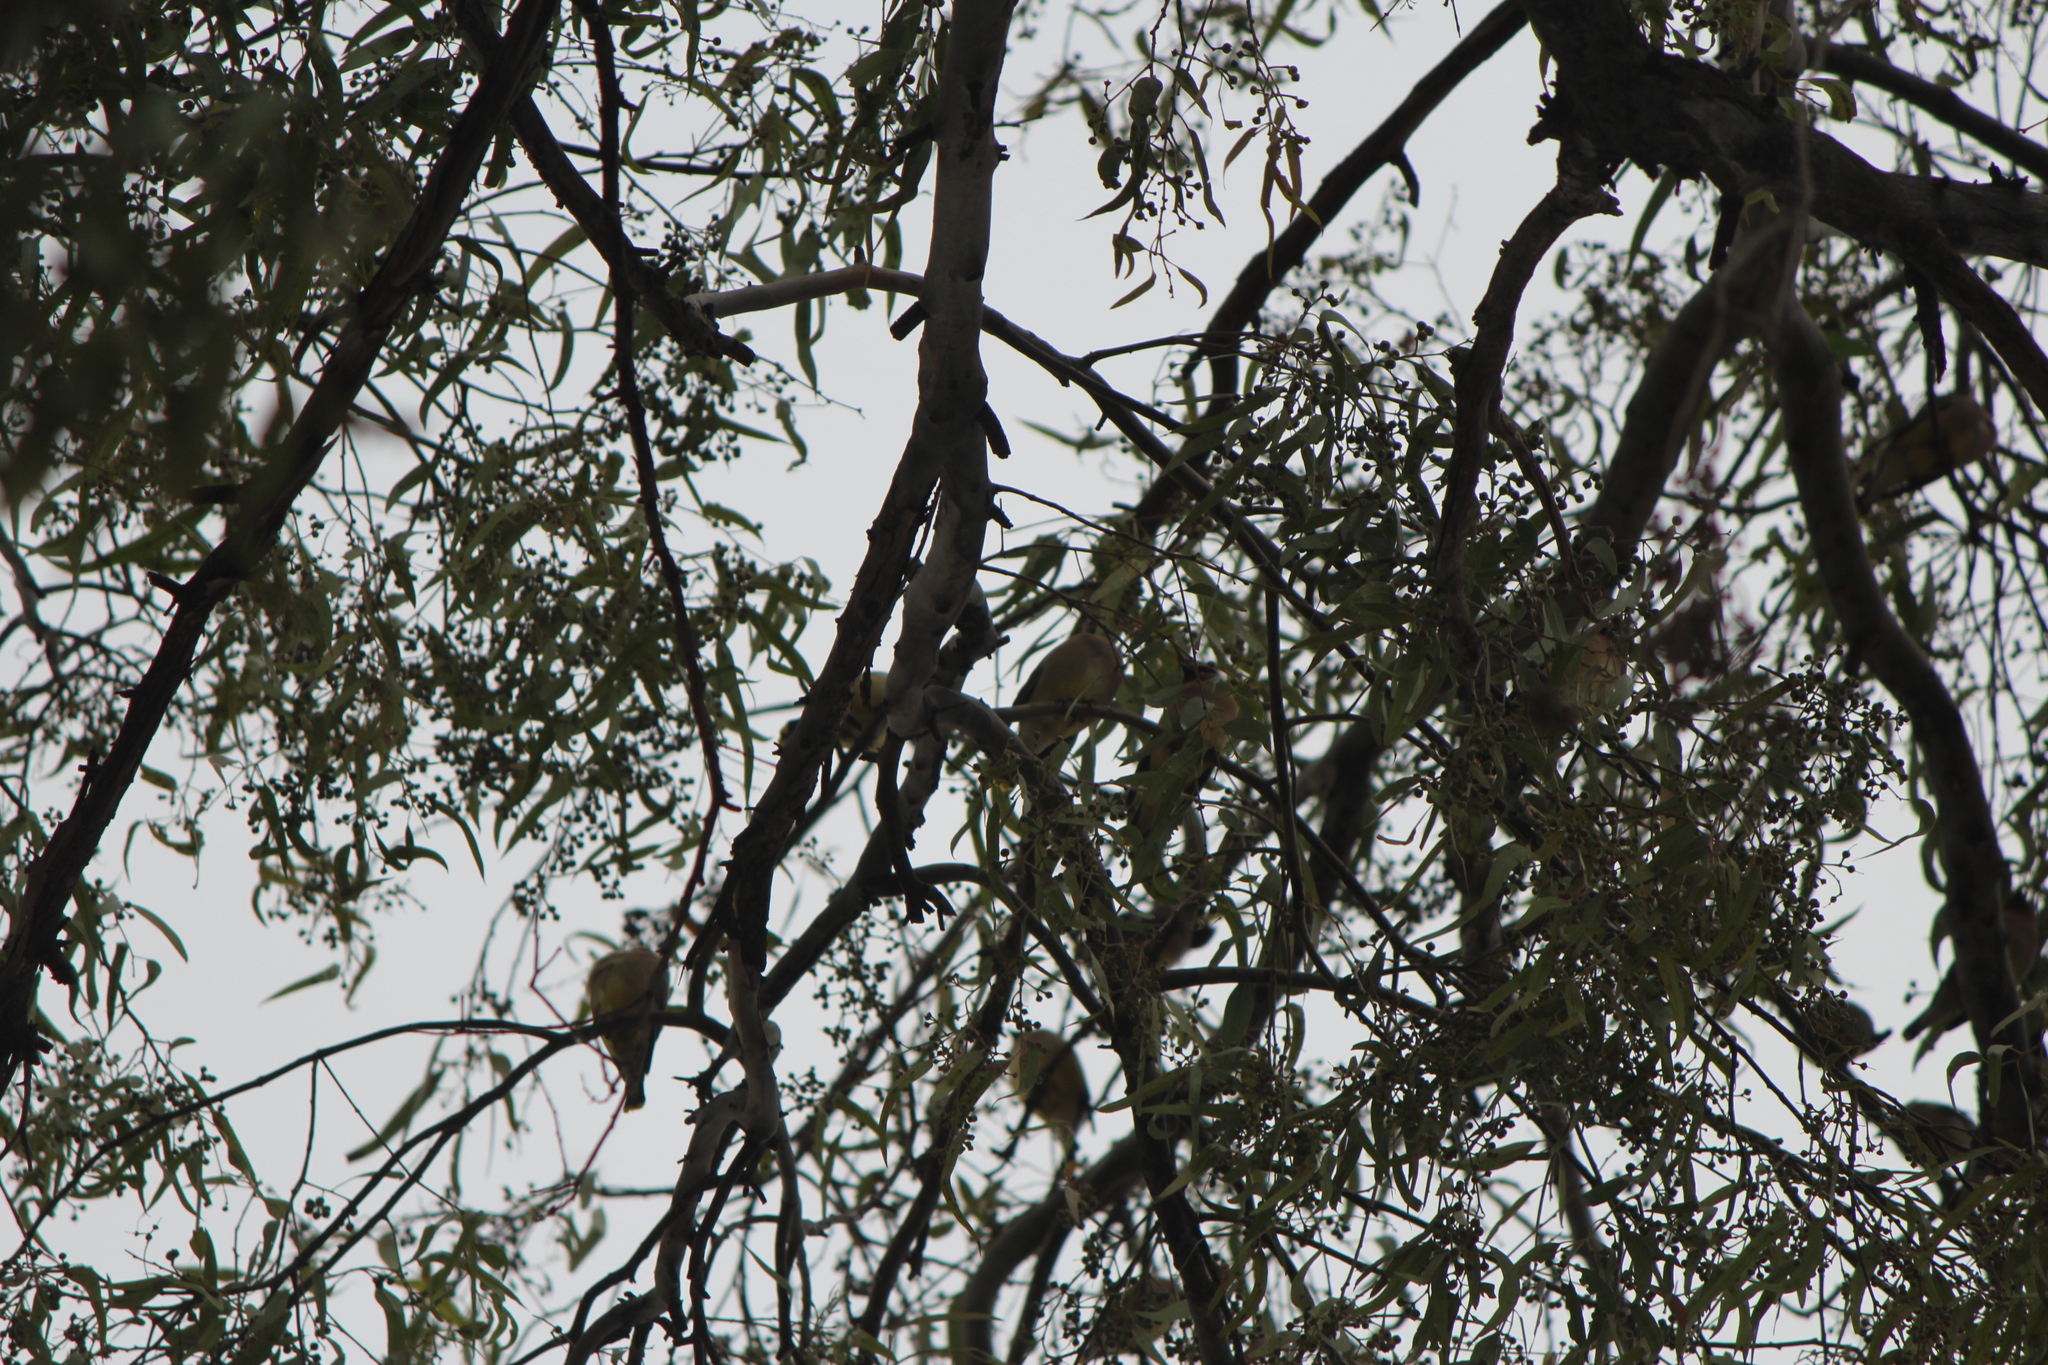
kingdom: Animalia
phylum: Chordata
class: Aves
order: Passeriformes
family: Bombycillidae
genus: Bombycilla
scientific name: Bombycilla cedrorum
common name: Cedar waxwing
